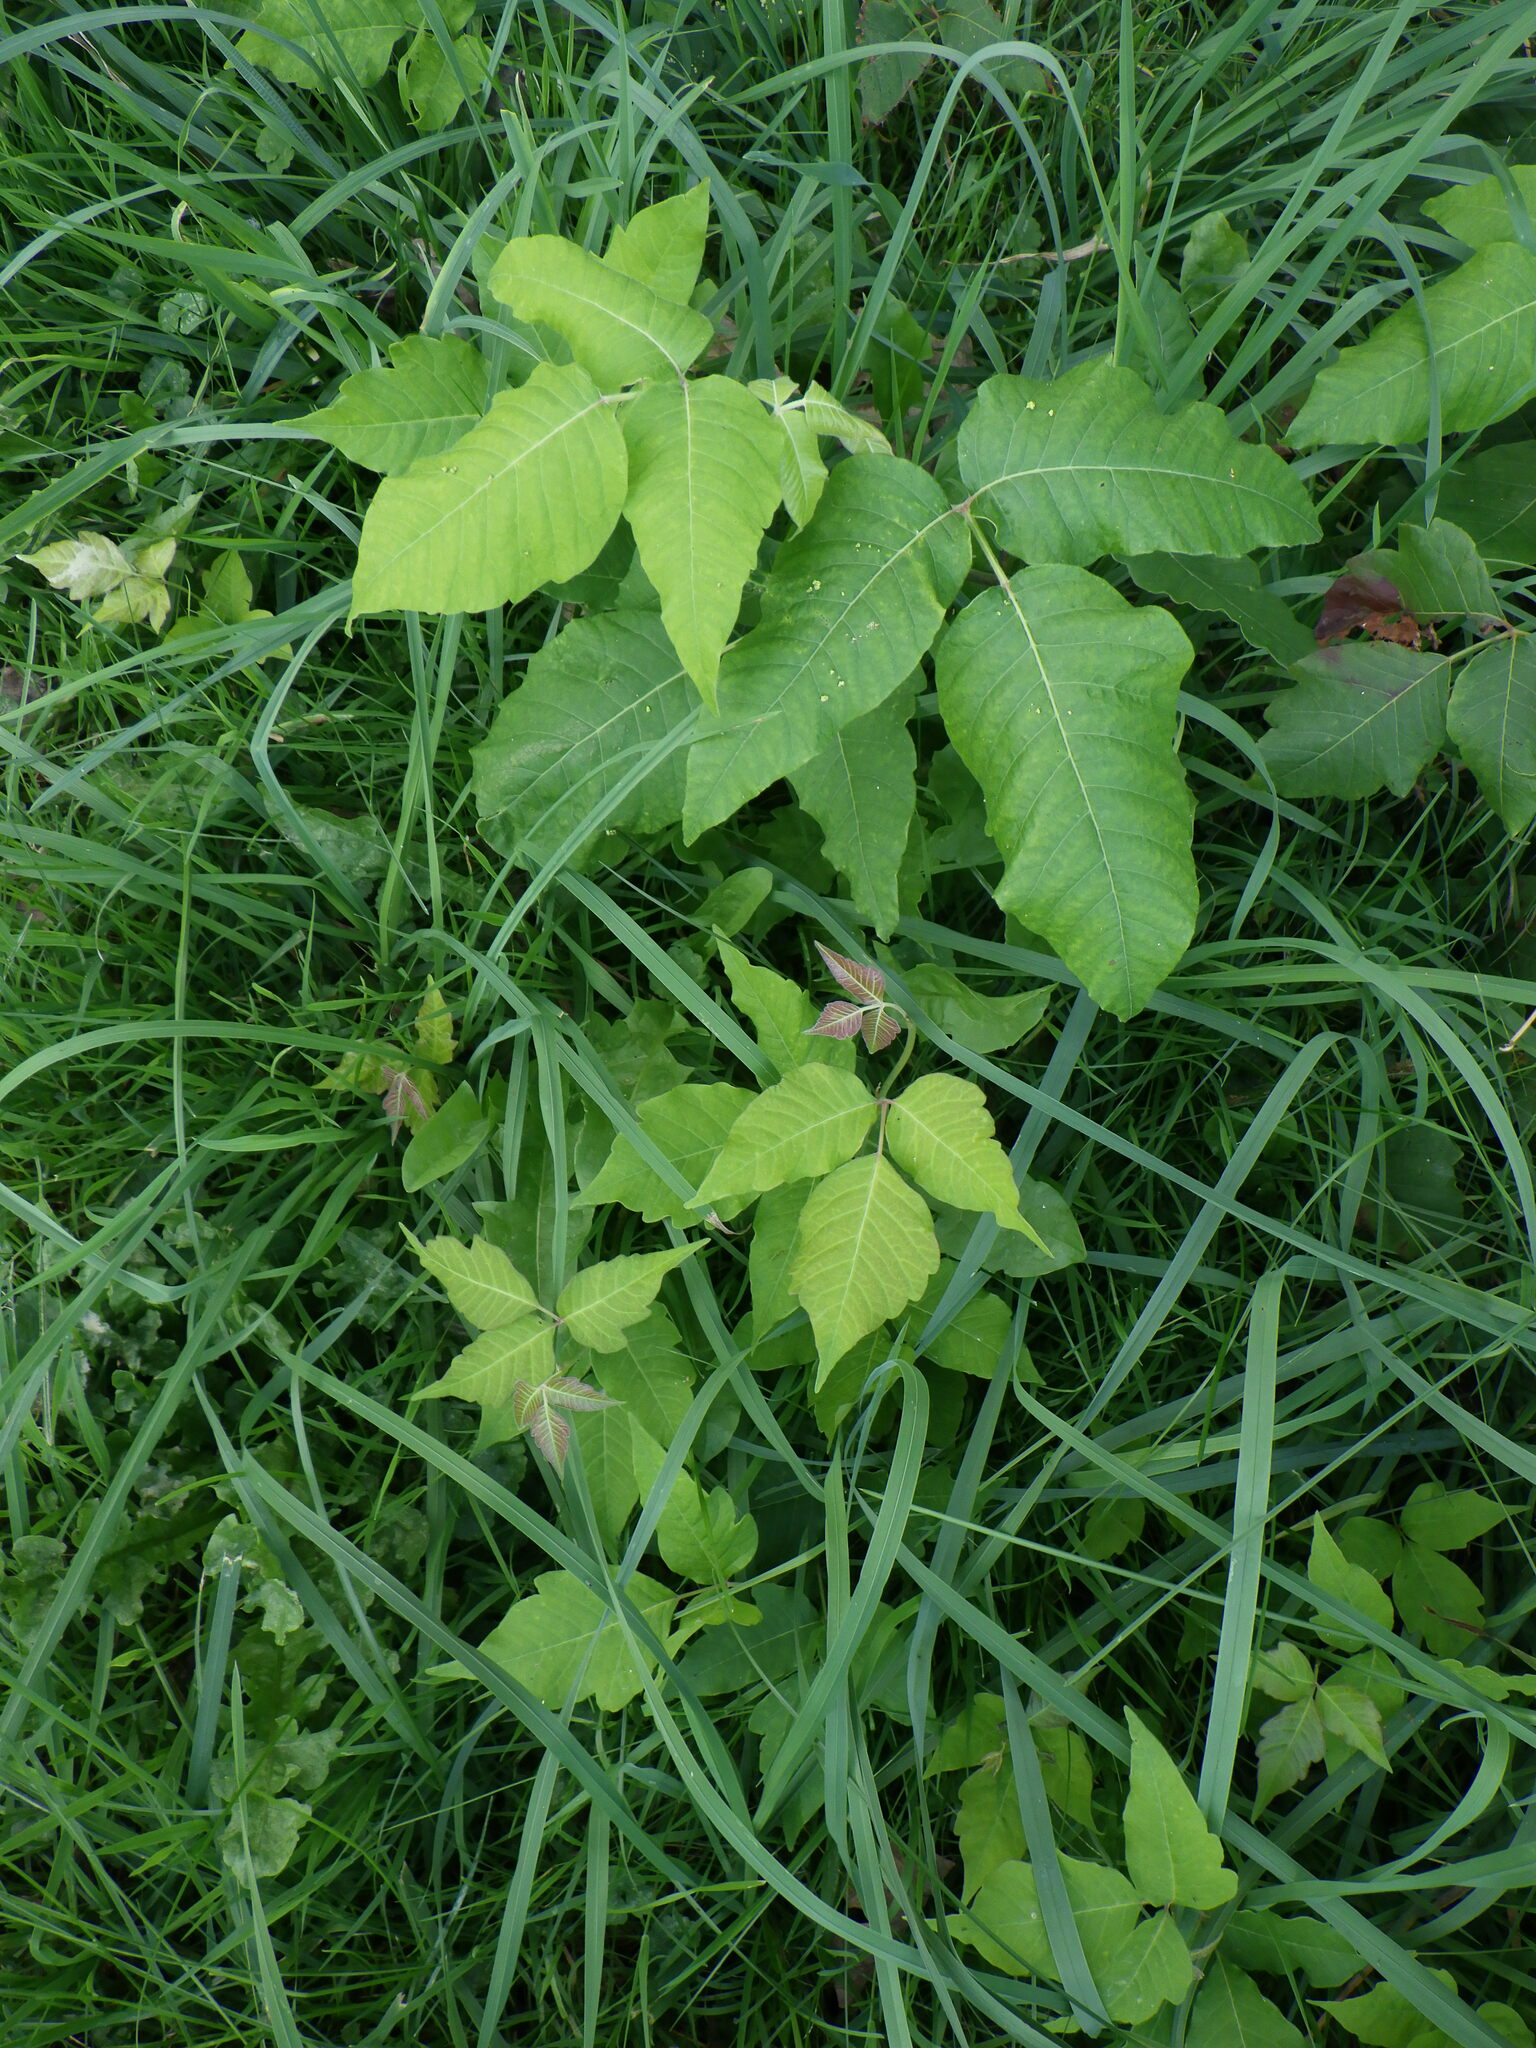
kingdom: Plantae
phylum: Tracheophyta
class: Magnoliopsida
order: Sapindales
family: Anacardiaceae
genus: Toxicodendron
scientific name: Toxicodendron radicans
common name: Poison ivy
